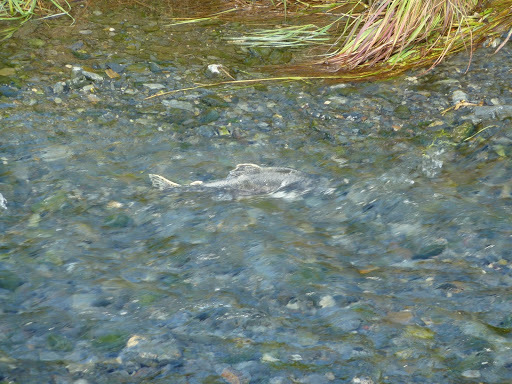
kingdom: Animalia
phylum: Chordata
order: Salmoniformes
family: Salmonidae
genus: Oncorhynchus
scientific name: Oncorhynchus gorbuscha
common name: Humpback salmon
